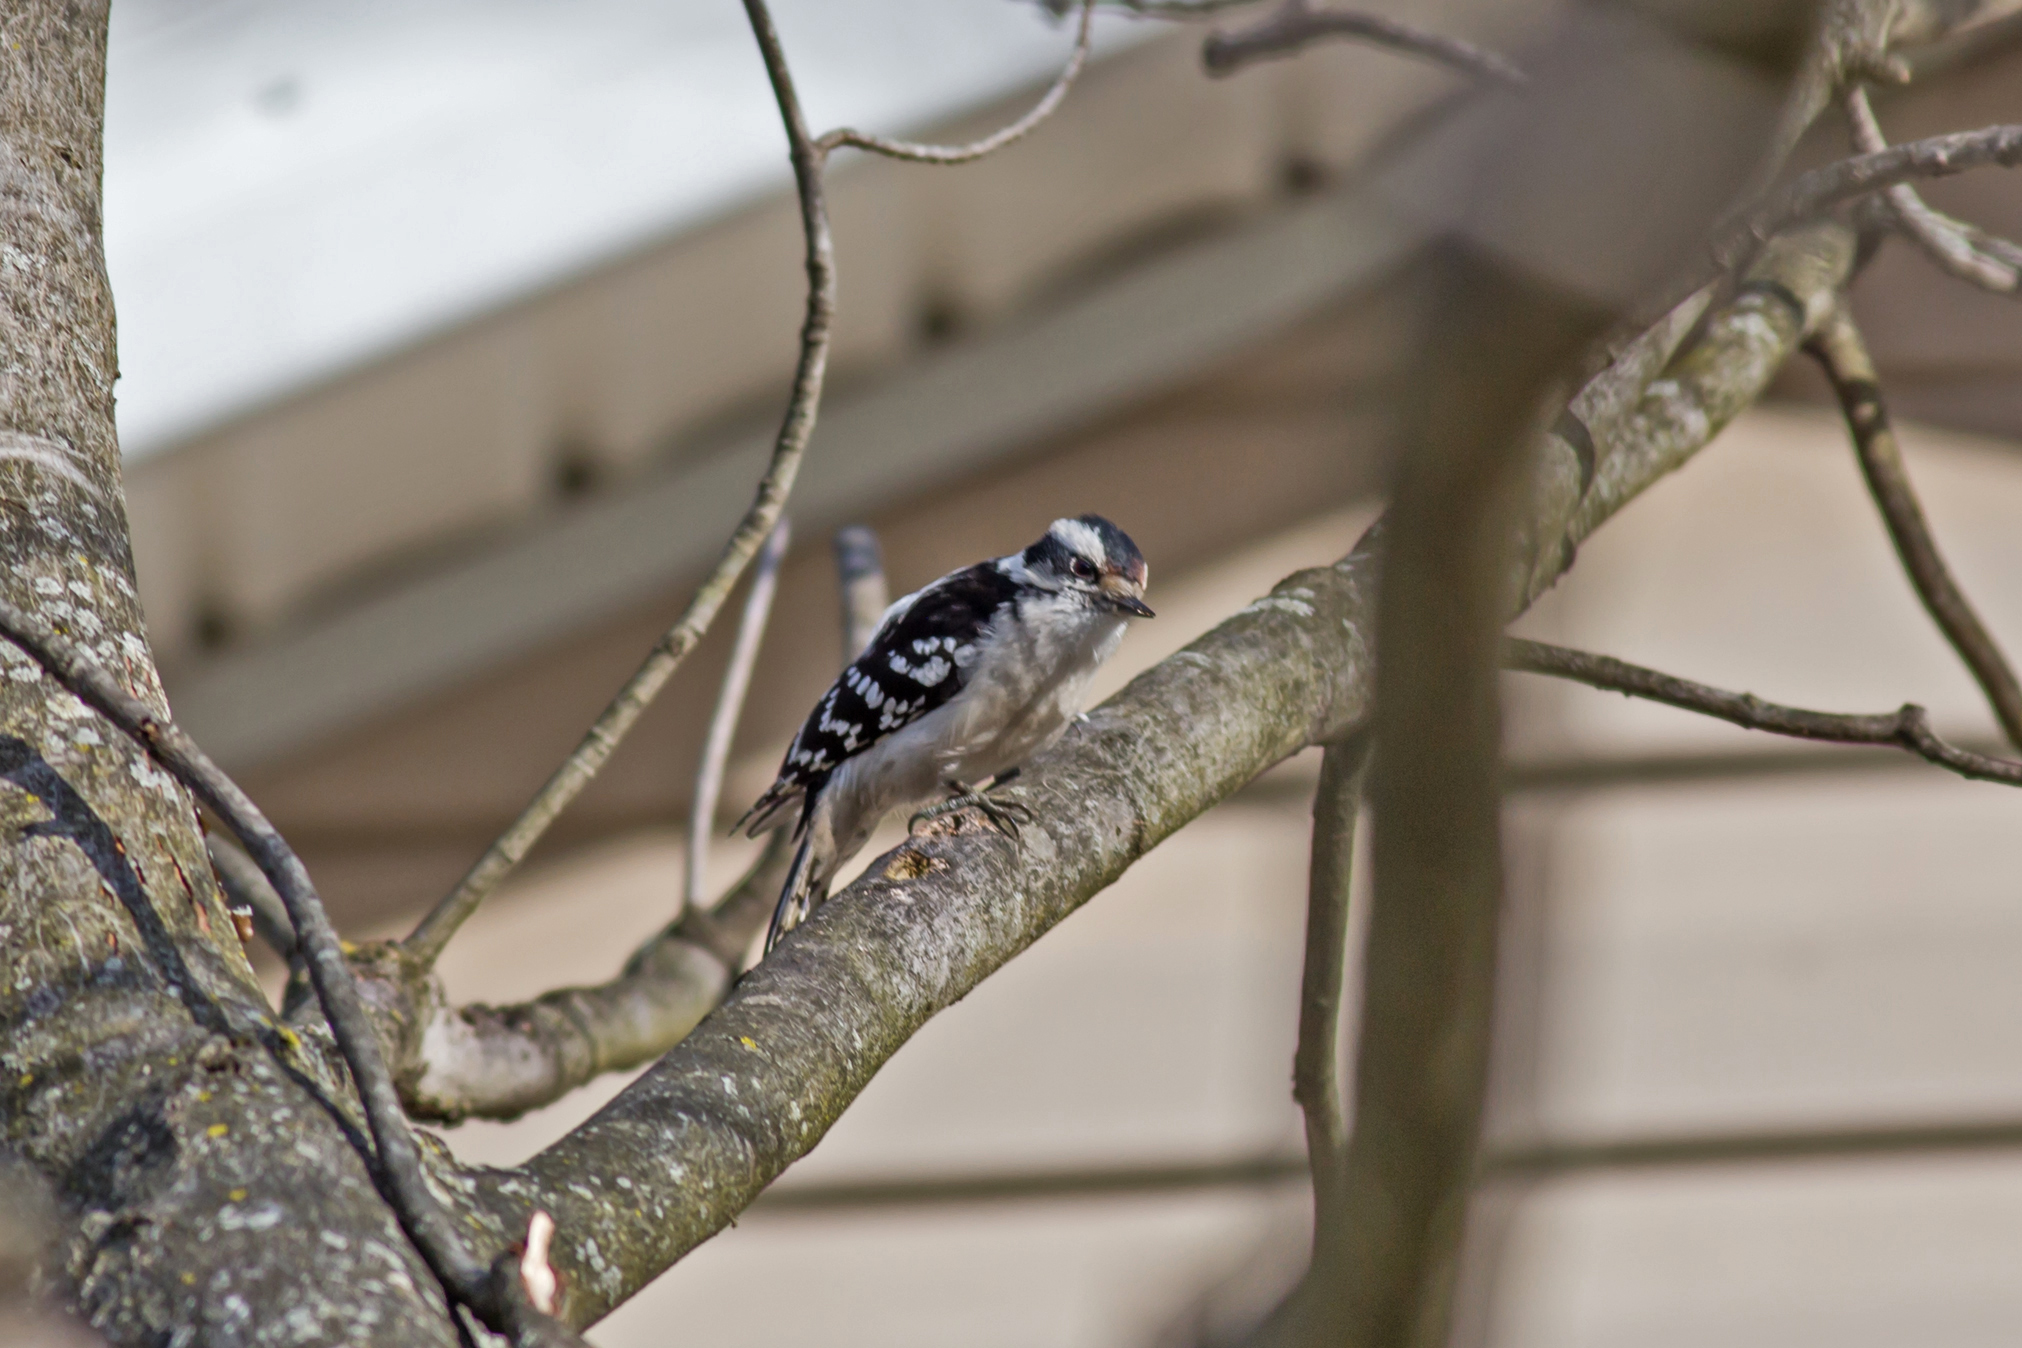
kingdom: Animalia
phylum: Chordata
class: Aves
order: Piciformes
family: Picidae
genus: Dryobates
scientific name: Dryobates pubescens
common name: Downy woodpecker
